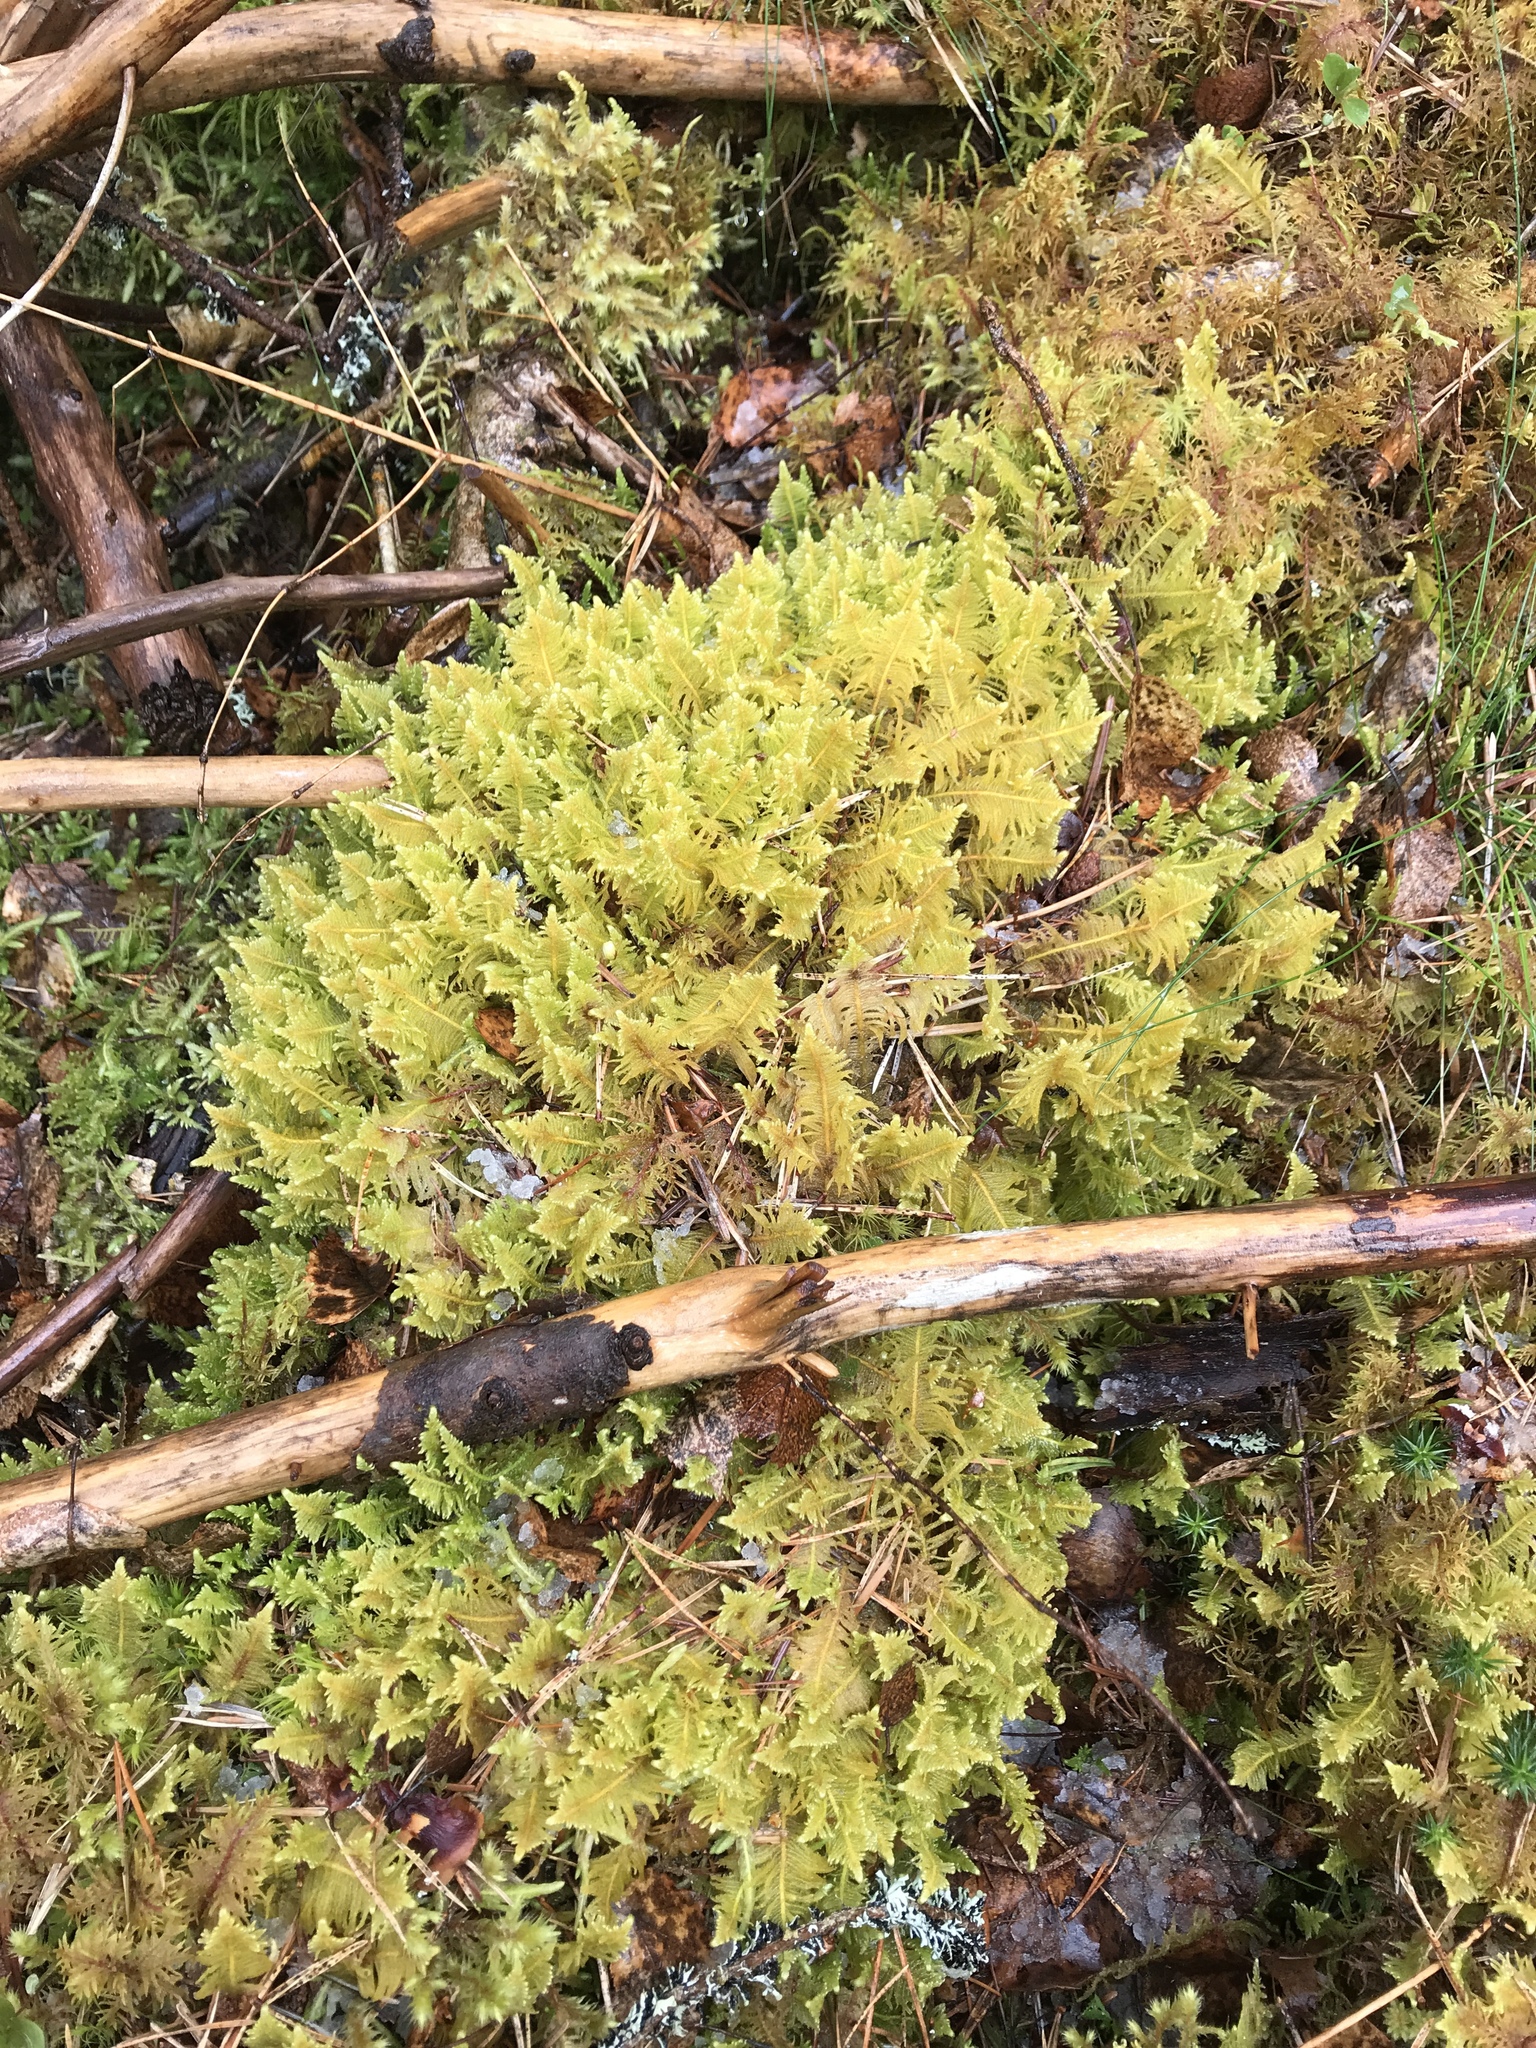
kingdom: Plantae
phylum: Bryophyta
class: Bryopsida
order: Hypnales
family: Pylaisiaceae
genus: Ptilium
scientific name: Ptilium crista-castrensis
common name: Knight's plume moss
